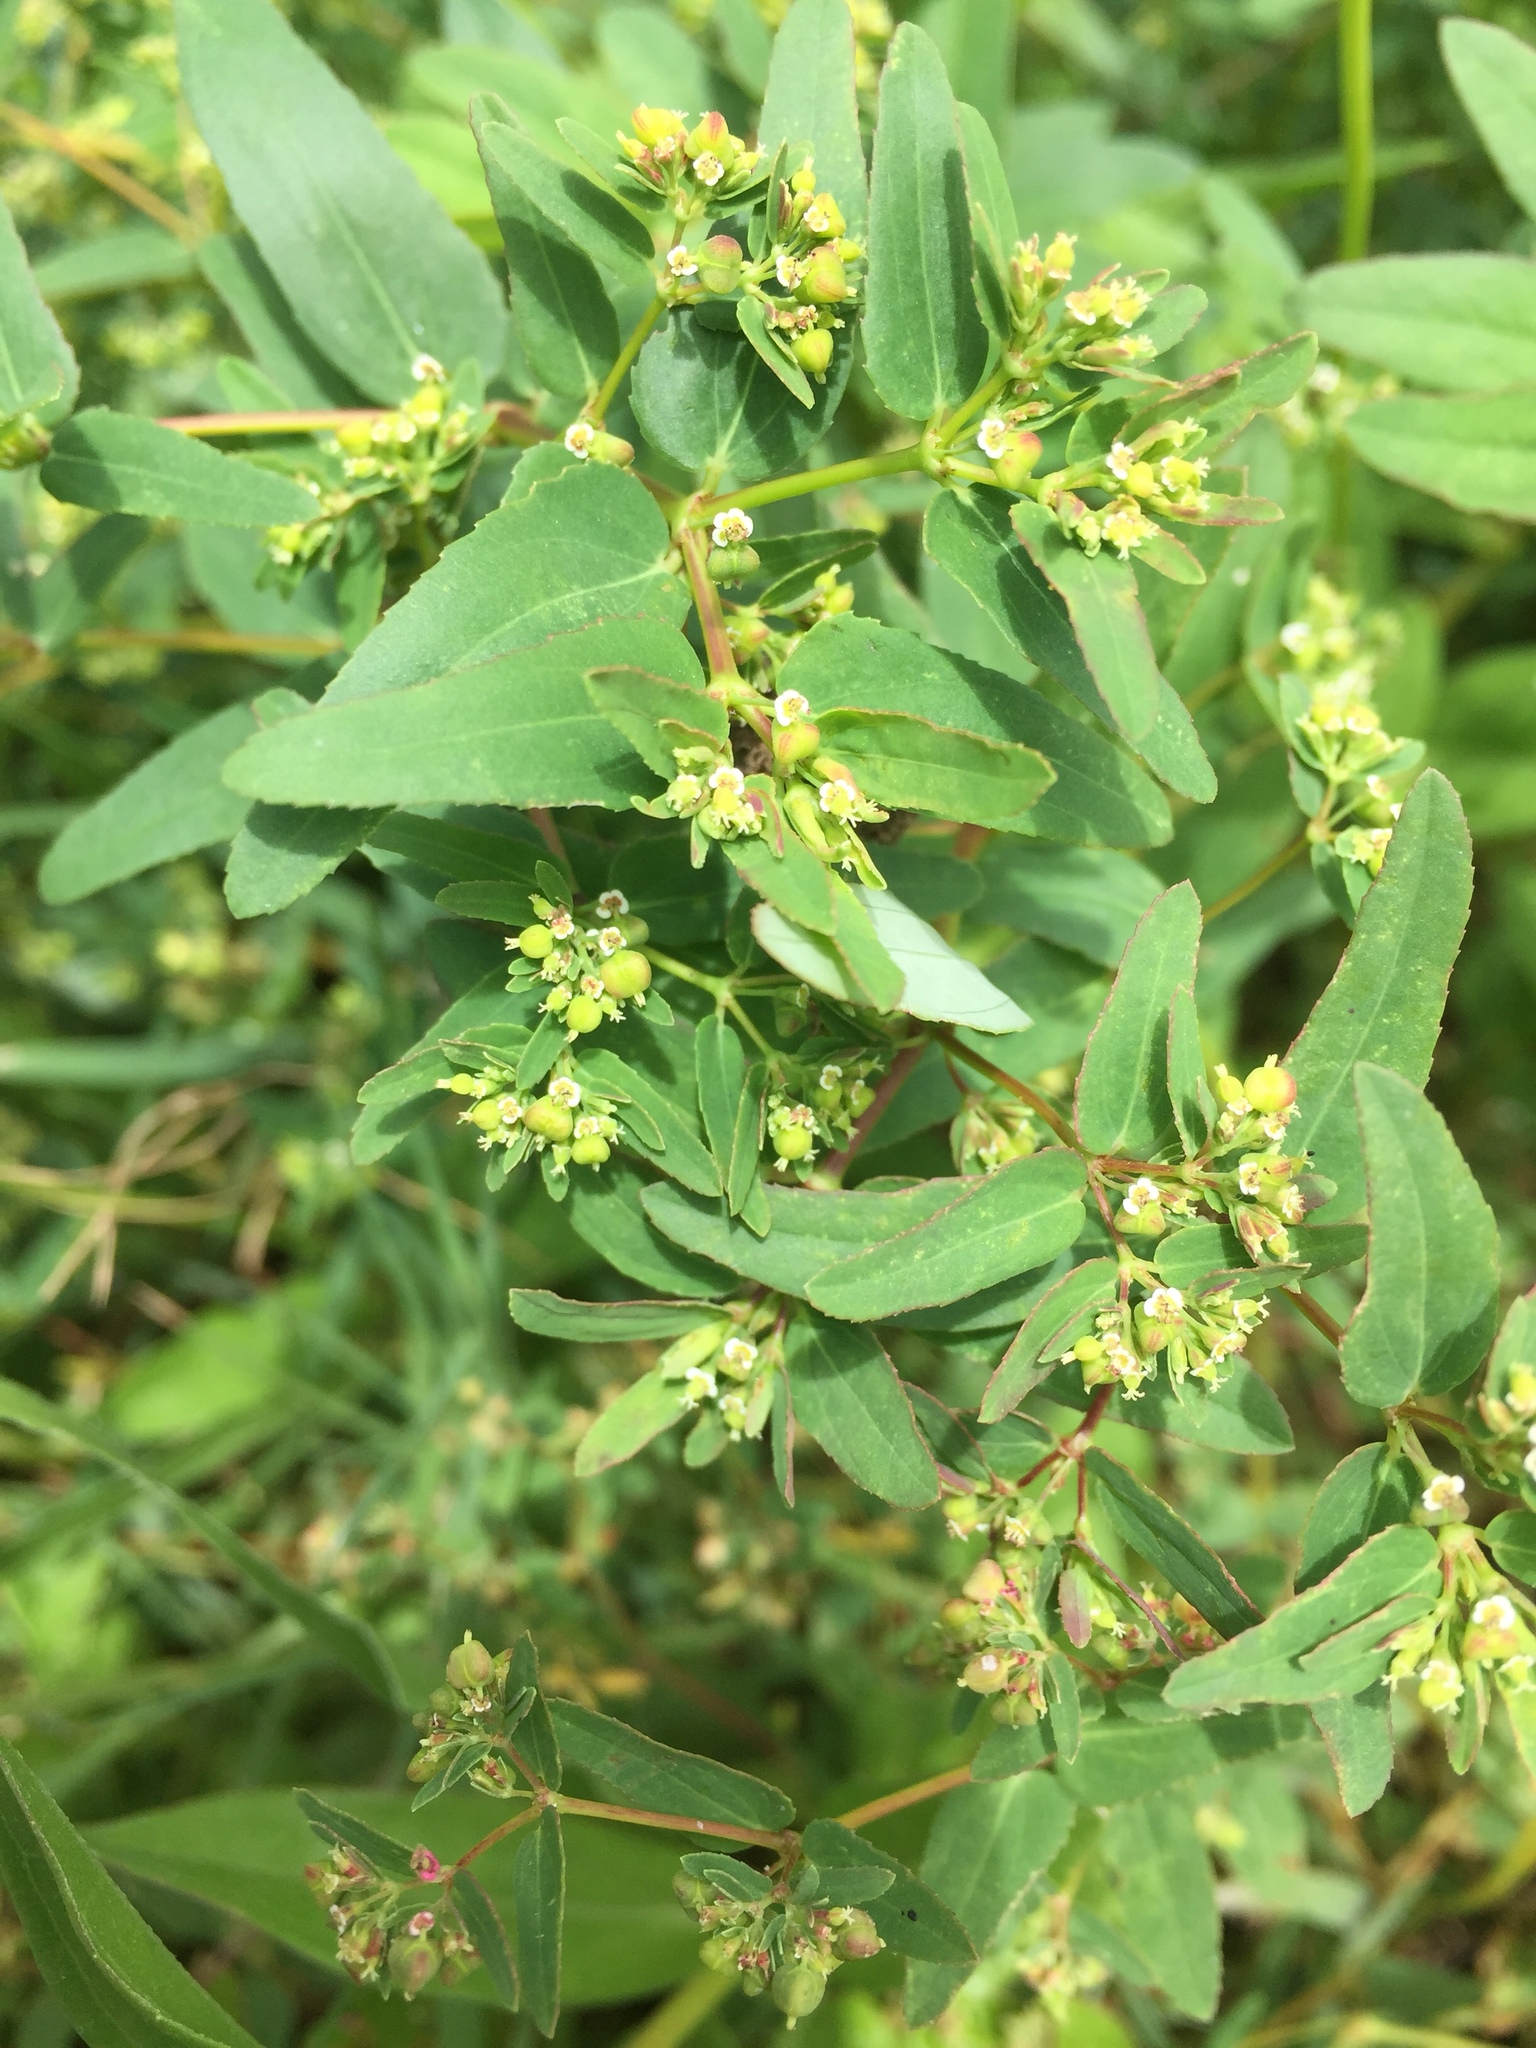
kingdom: Plantae
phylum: Tracheophyta
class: Magnoliopsida
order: Malpighiales
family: Euphorbiaceae
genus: Euphorbia
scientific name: Euphorbia hyssopifolia
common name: Hyssopleaf sandmat
